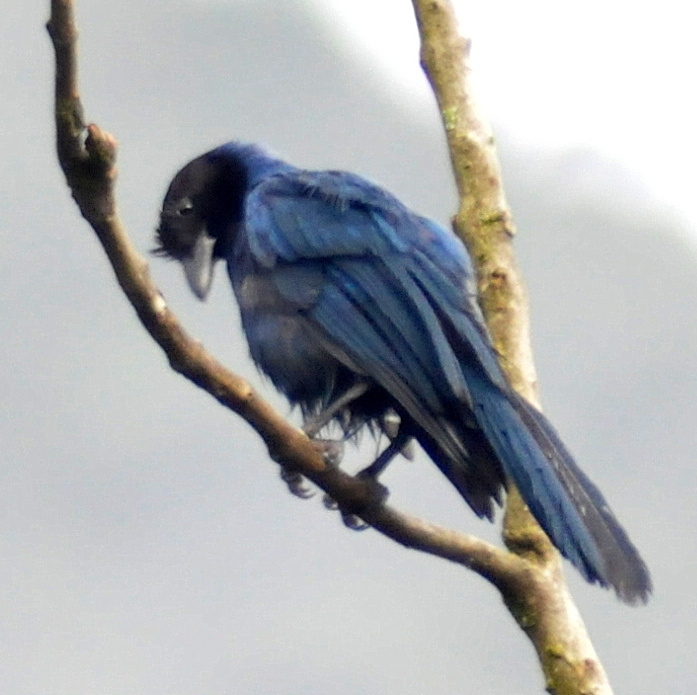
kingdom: Animalia
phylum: Chordata
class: Aves
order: Passeriformes
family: Corvidae
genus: Cyanocorax
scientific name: Cyanocorax caeruleus
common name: Azure jay
